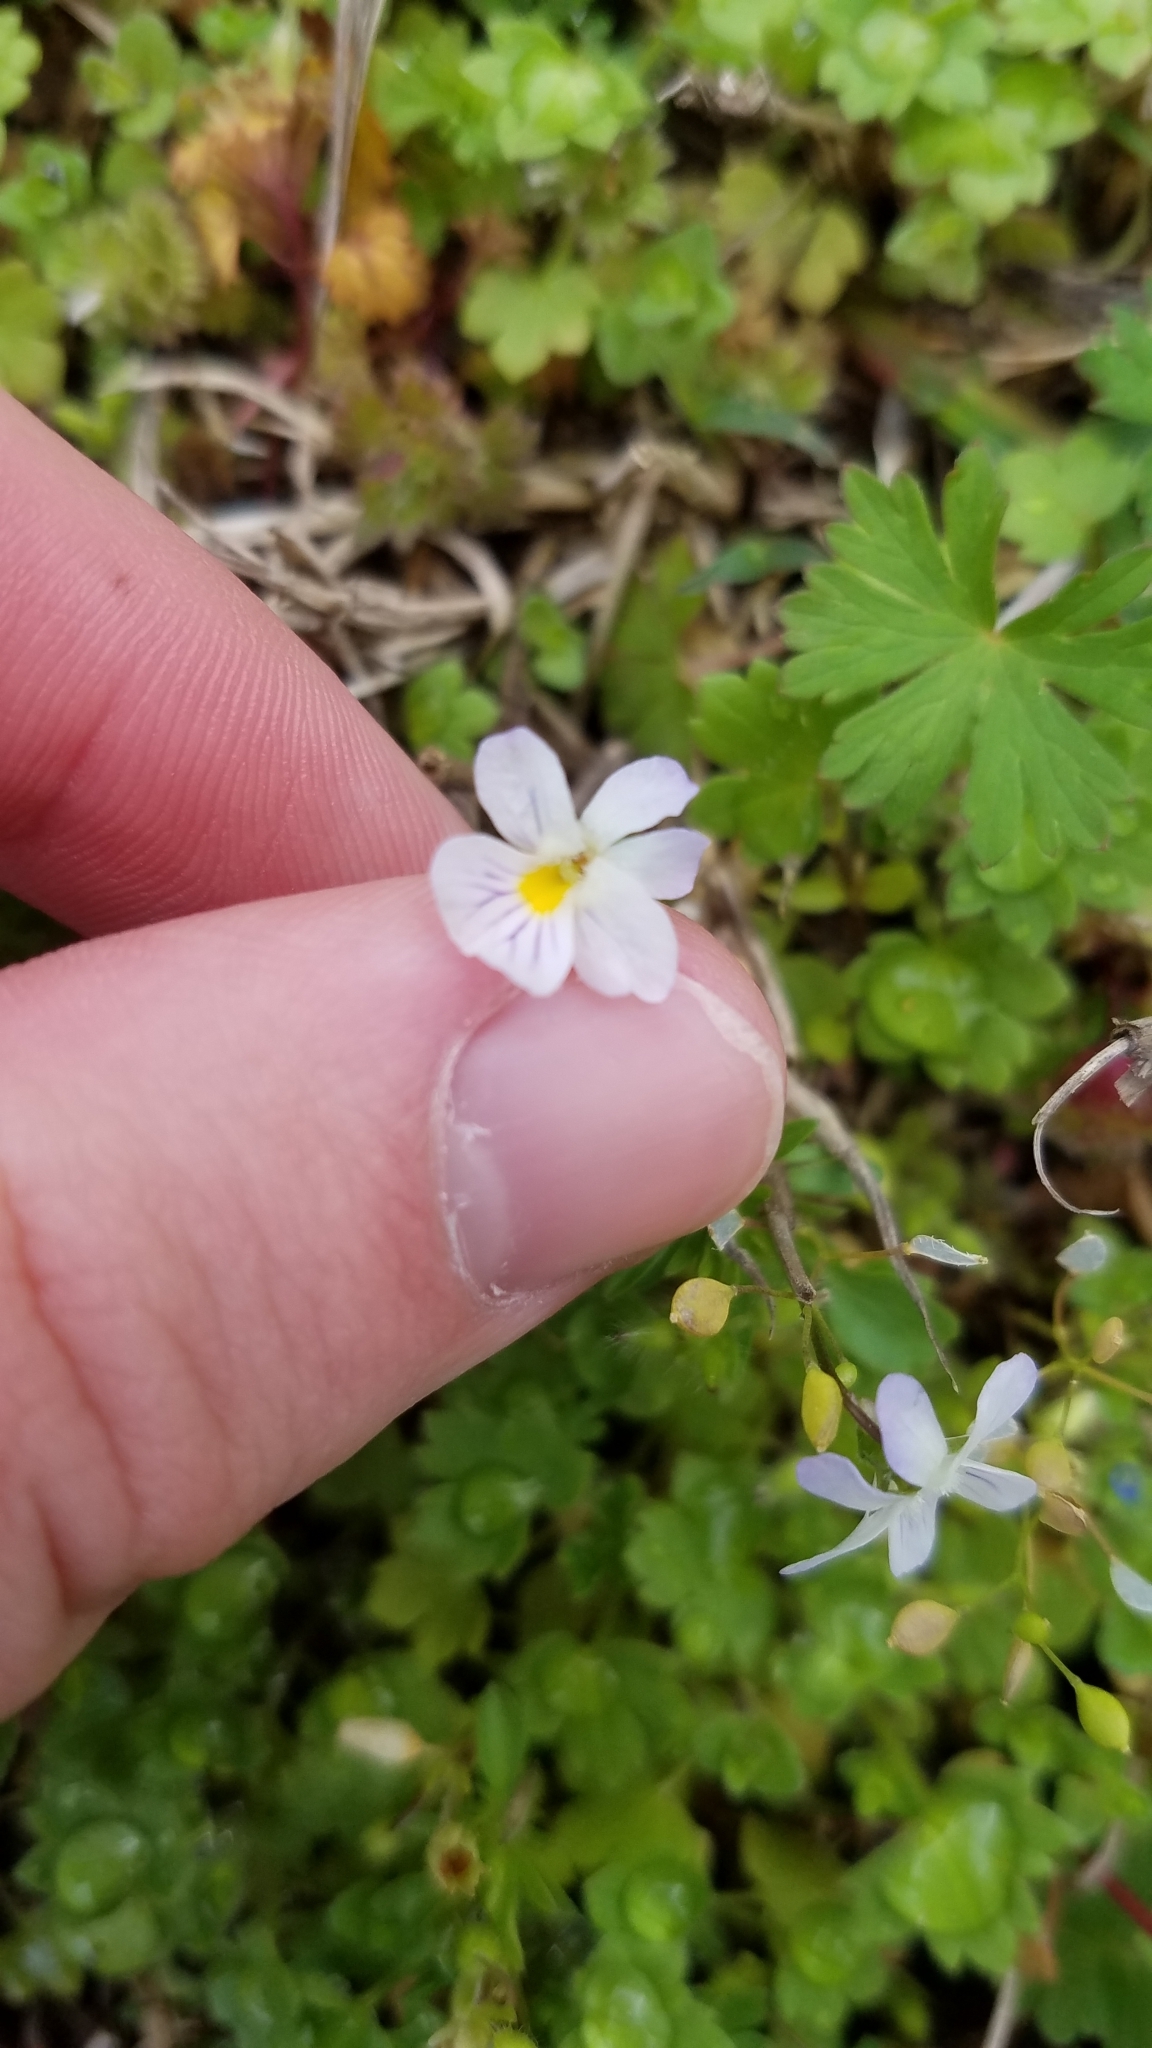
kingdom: Plantae
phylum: Tracheophyta
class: Magnoliopsida
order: Malpighiales
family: Violaceae
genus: Viola
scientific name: Viola rafinesquei
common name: American field pansy
